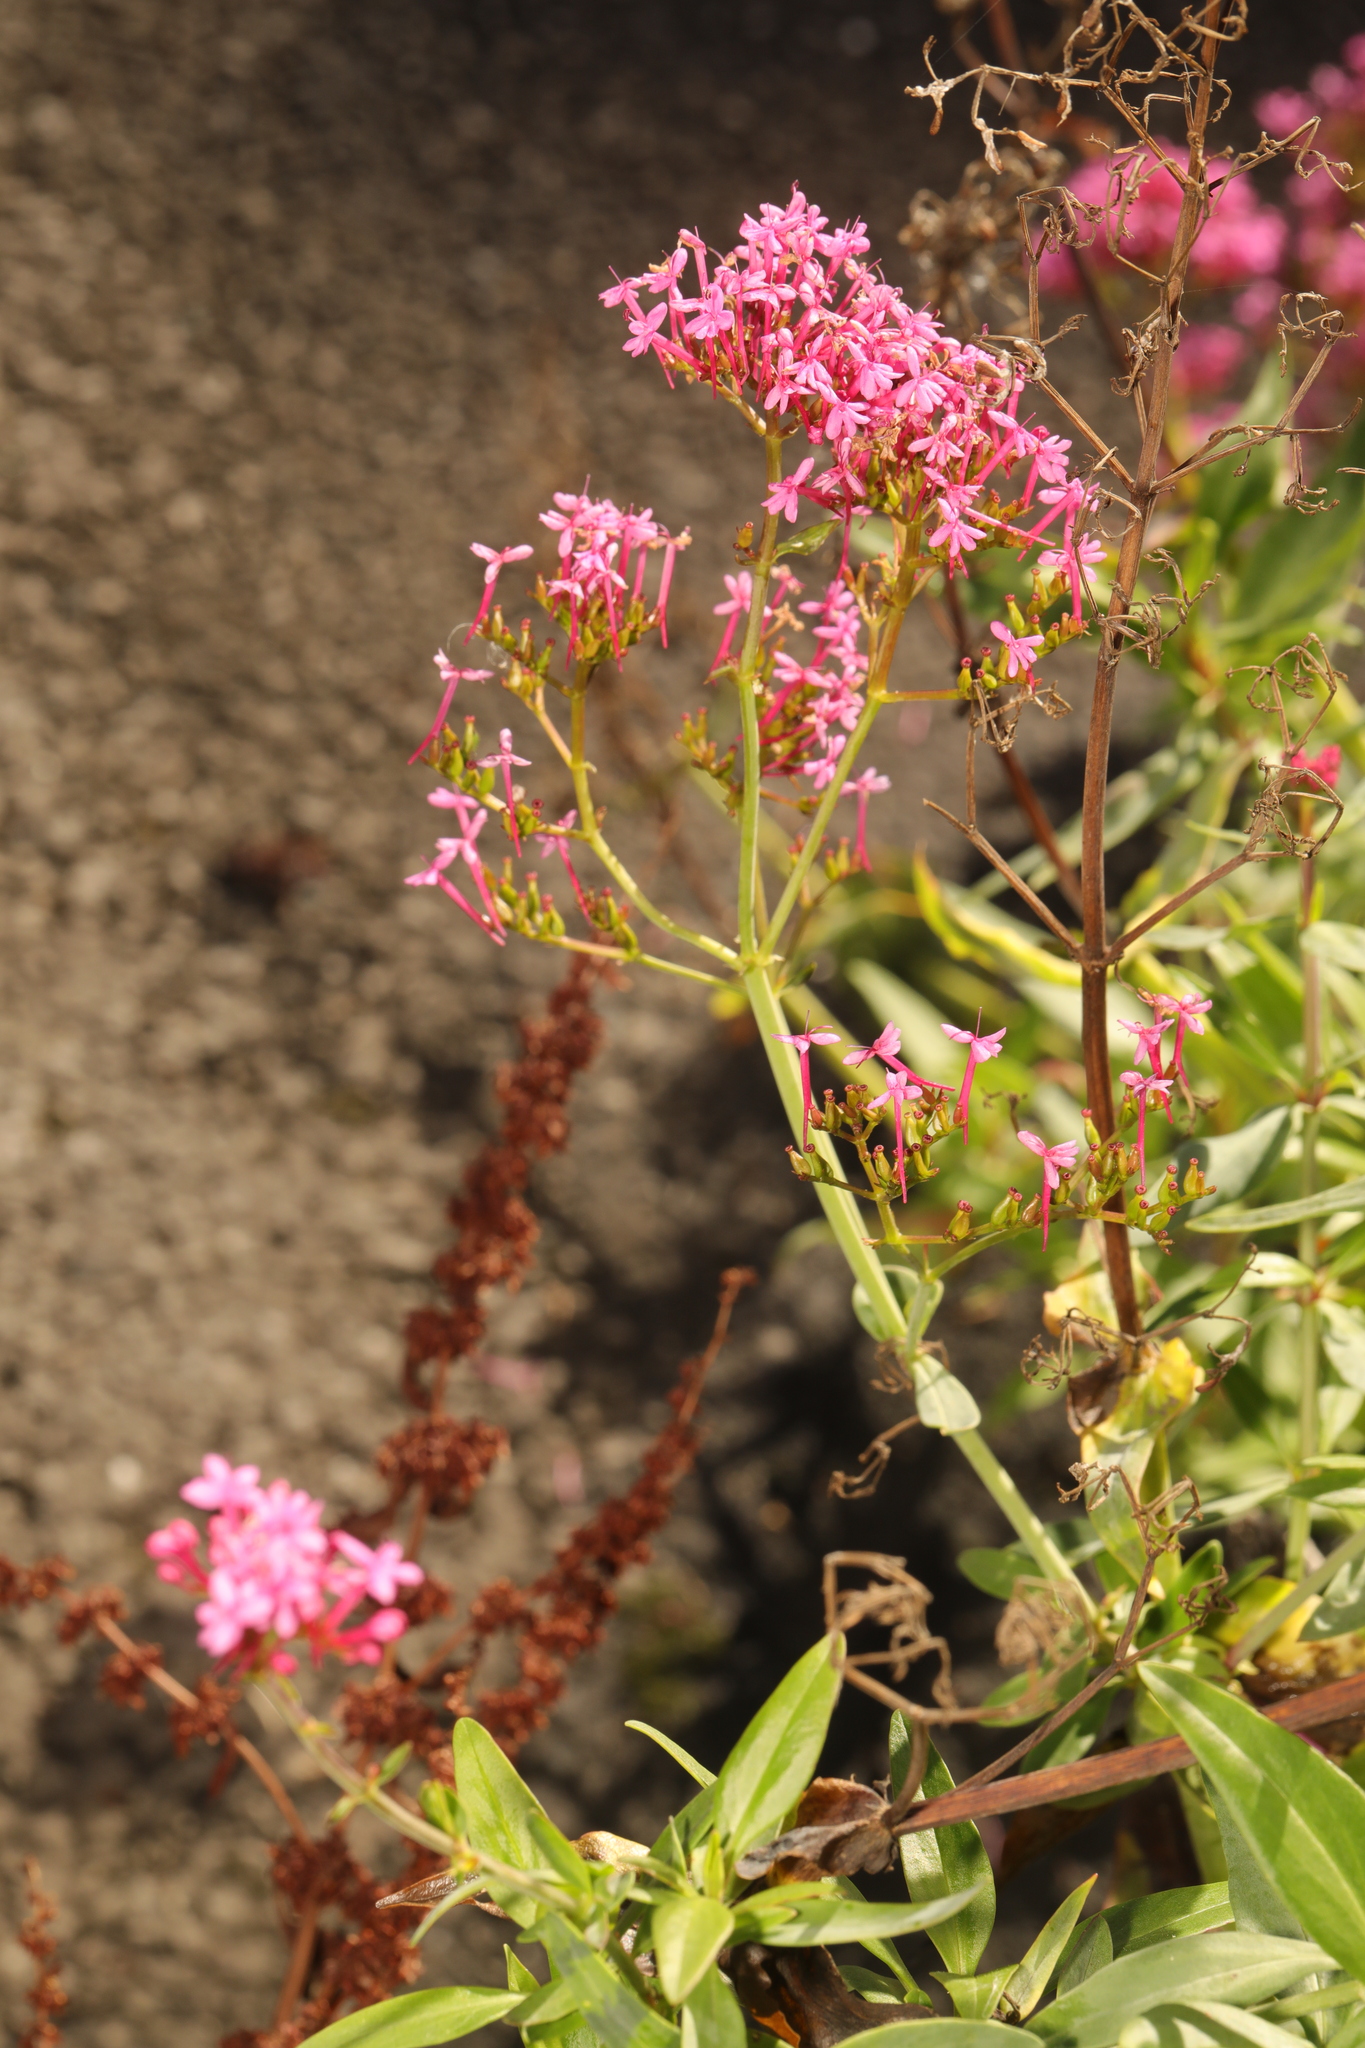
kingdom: Plantae
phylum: Tracheophyta
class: Magnoliopsida
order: Dipsacales
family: Caprifoliaceae
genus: Centranthus
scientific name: Centranthus ruber
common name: Red valerian
